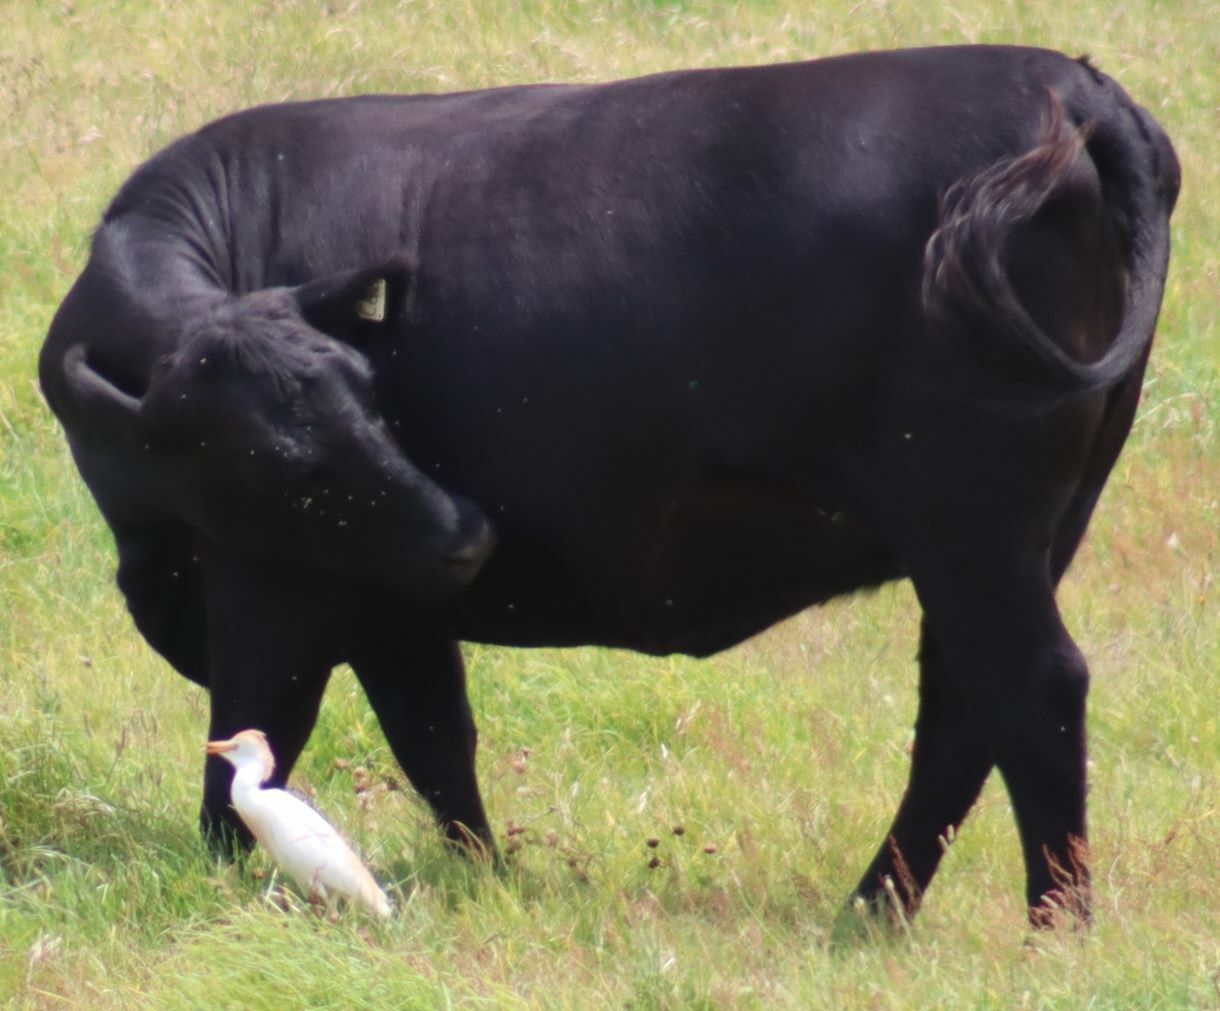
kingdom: Animalia
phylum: Chordata
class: Aves
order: Pelecaniformes
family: Ardeidae
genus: Bubulcus
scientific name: Bubulcus ibis
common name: Cattle egret
